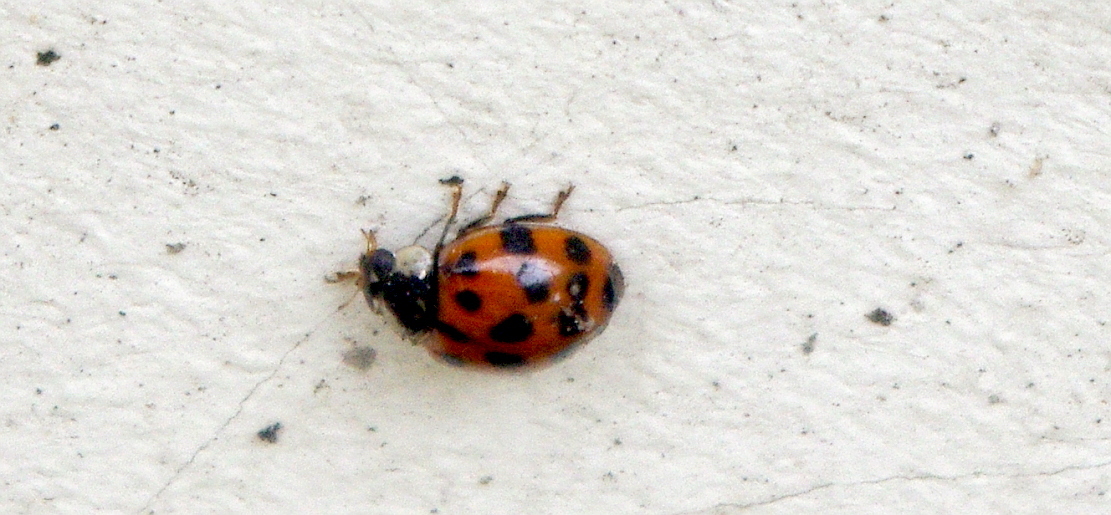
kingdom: Animalia
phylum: Arthropoda
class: Insecta
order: Coleoptera
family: Coccinellidae
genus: Harmonia
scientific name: Harmonia axyridis
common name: Harlequin ladybird
